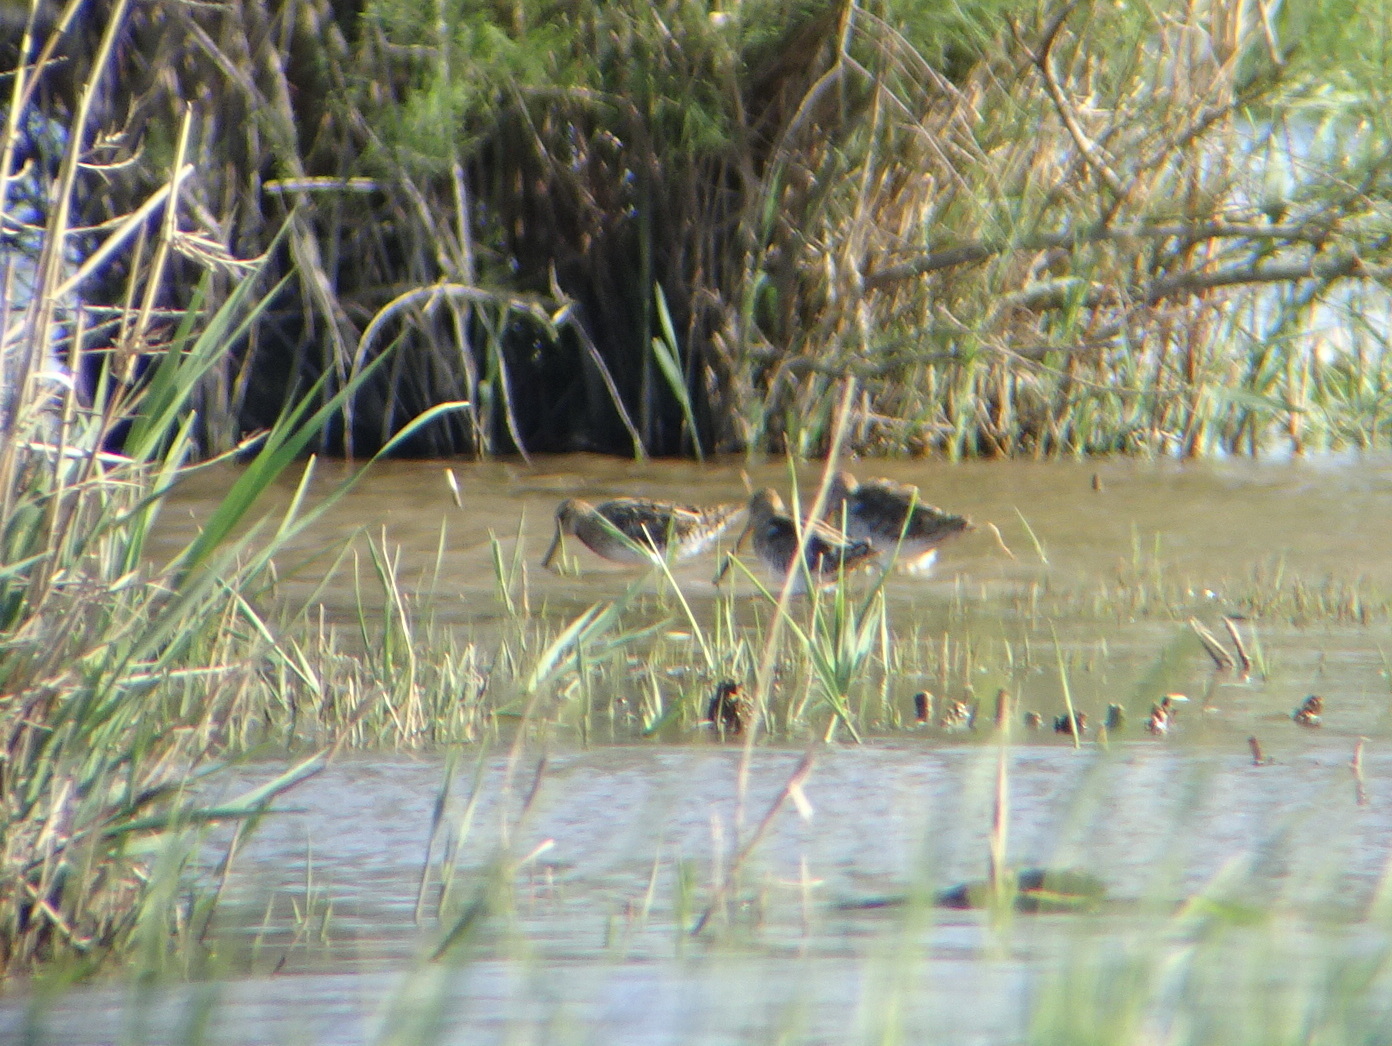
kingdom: Animalia
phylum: Chordata
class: Aves
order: Charadriiformes
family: Scolopacidae
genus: Gallinago
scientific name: Gallinago gallinago
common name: Common snipe
